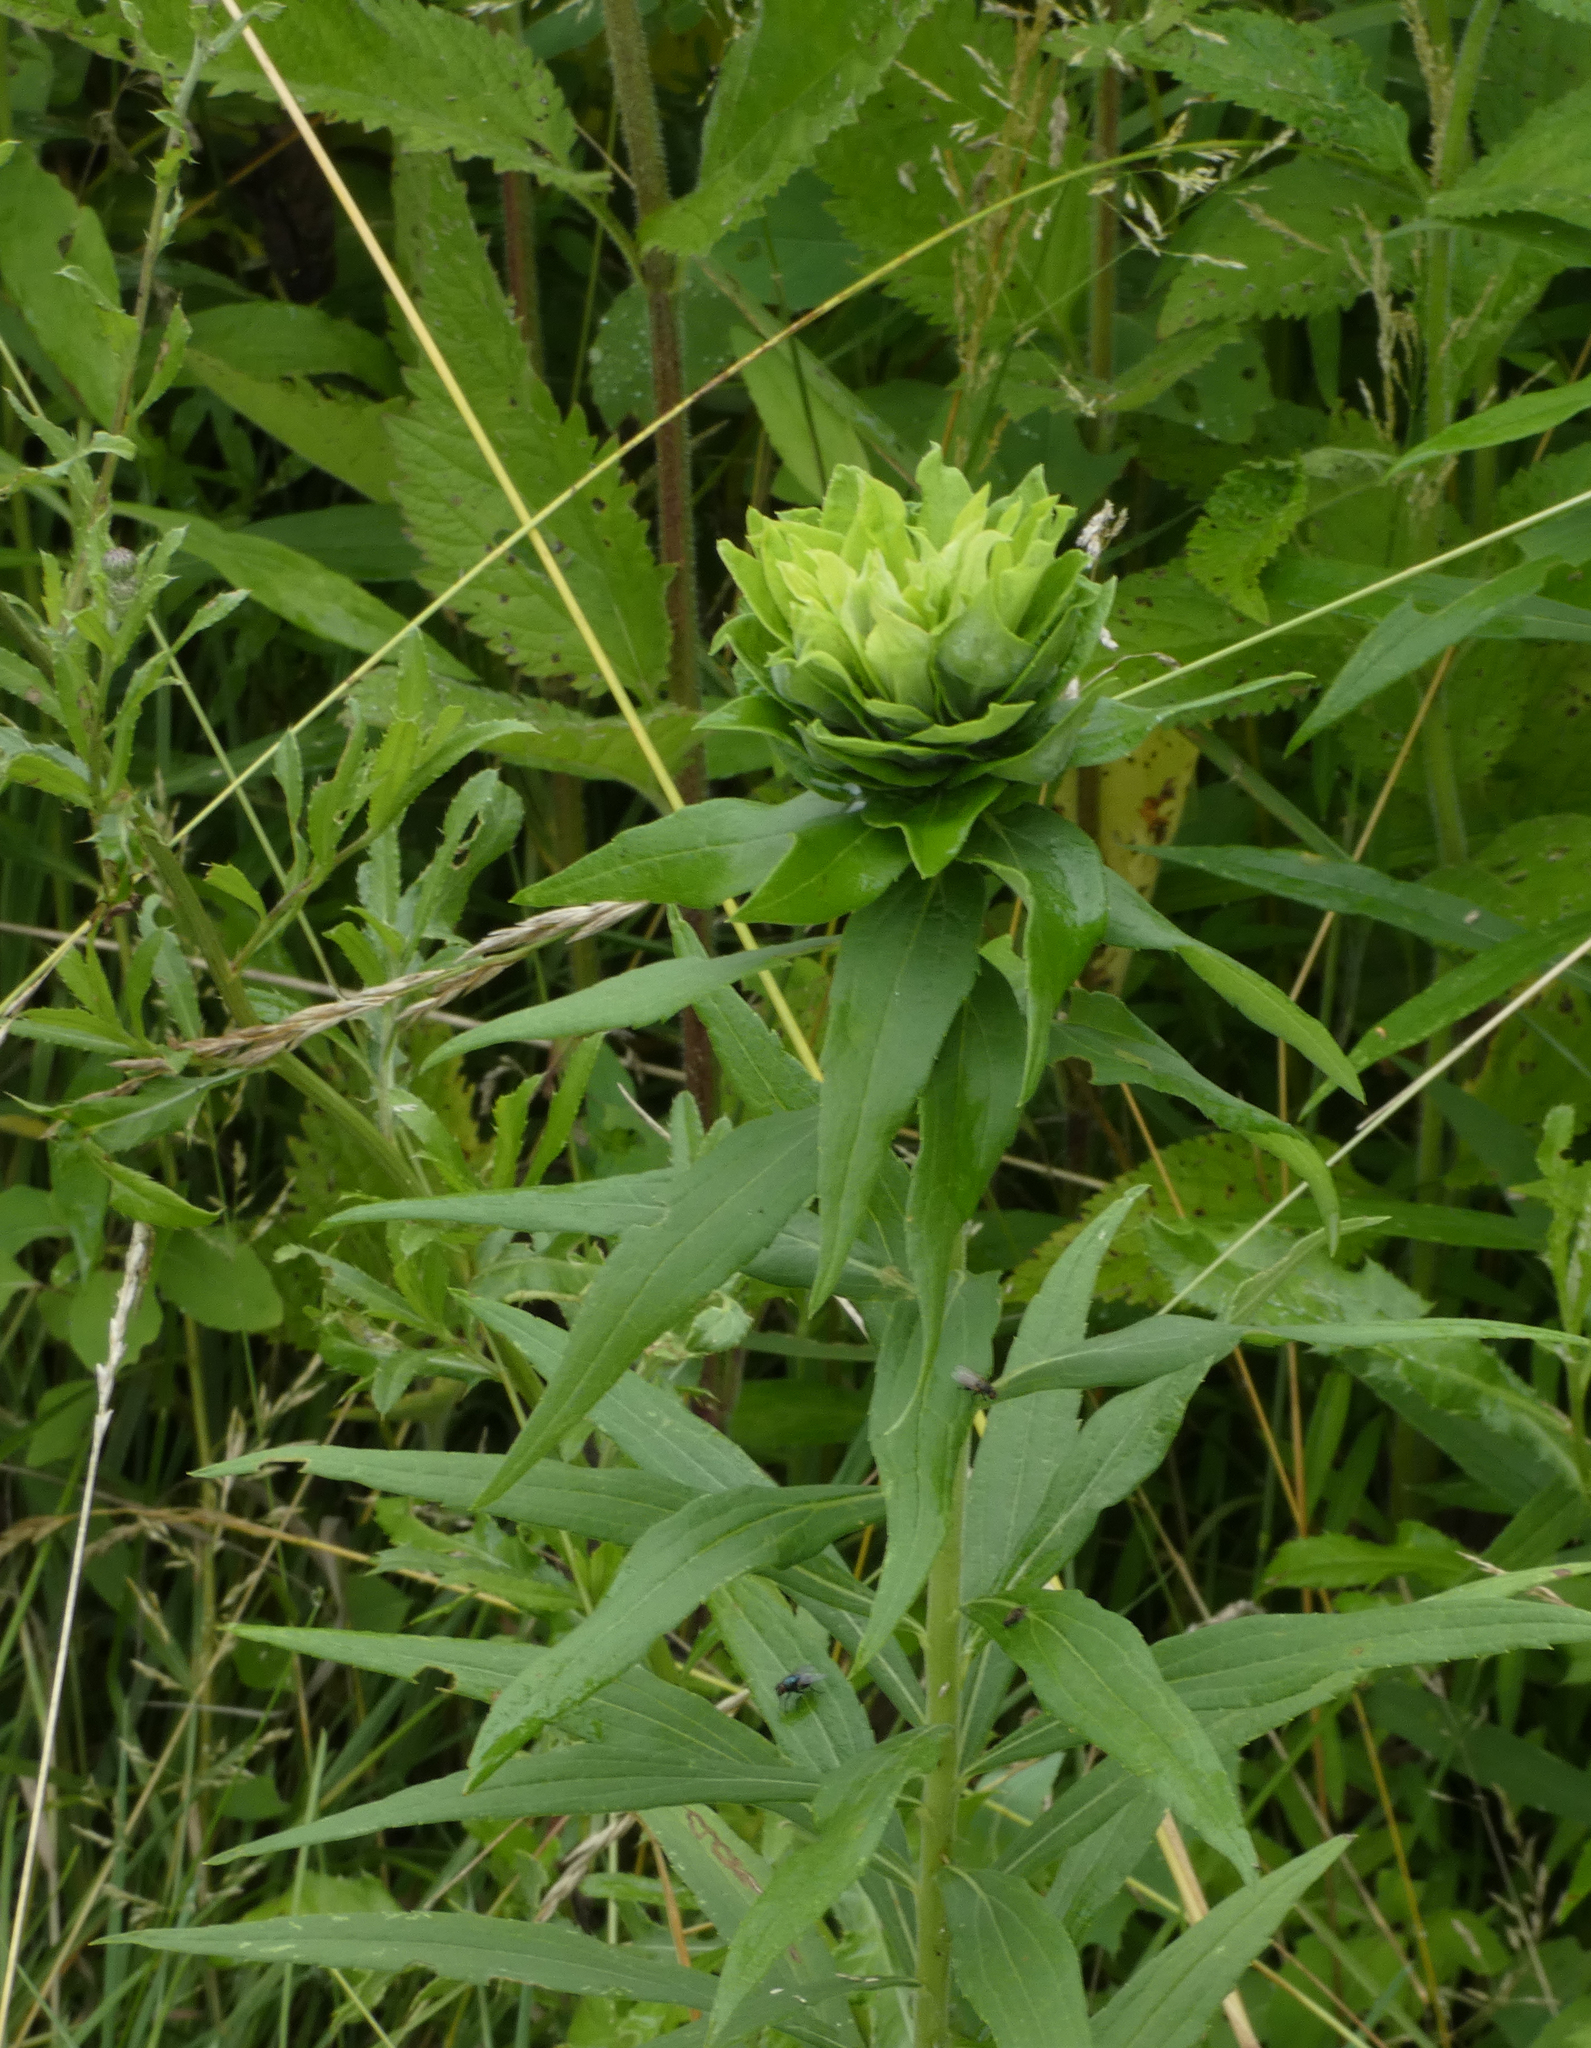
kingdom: Animalia
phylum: Arthropoda
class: Insecta
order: Diptera
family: Cecidomyiidae
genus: Rhopalomyia
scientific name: Rhopalomyia solidaginis
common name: Goldenrod bunch gall midge
